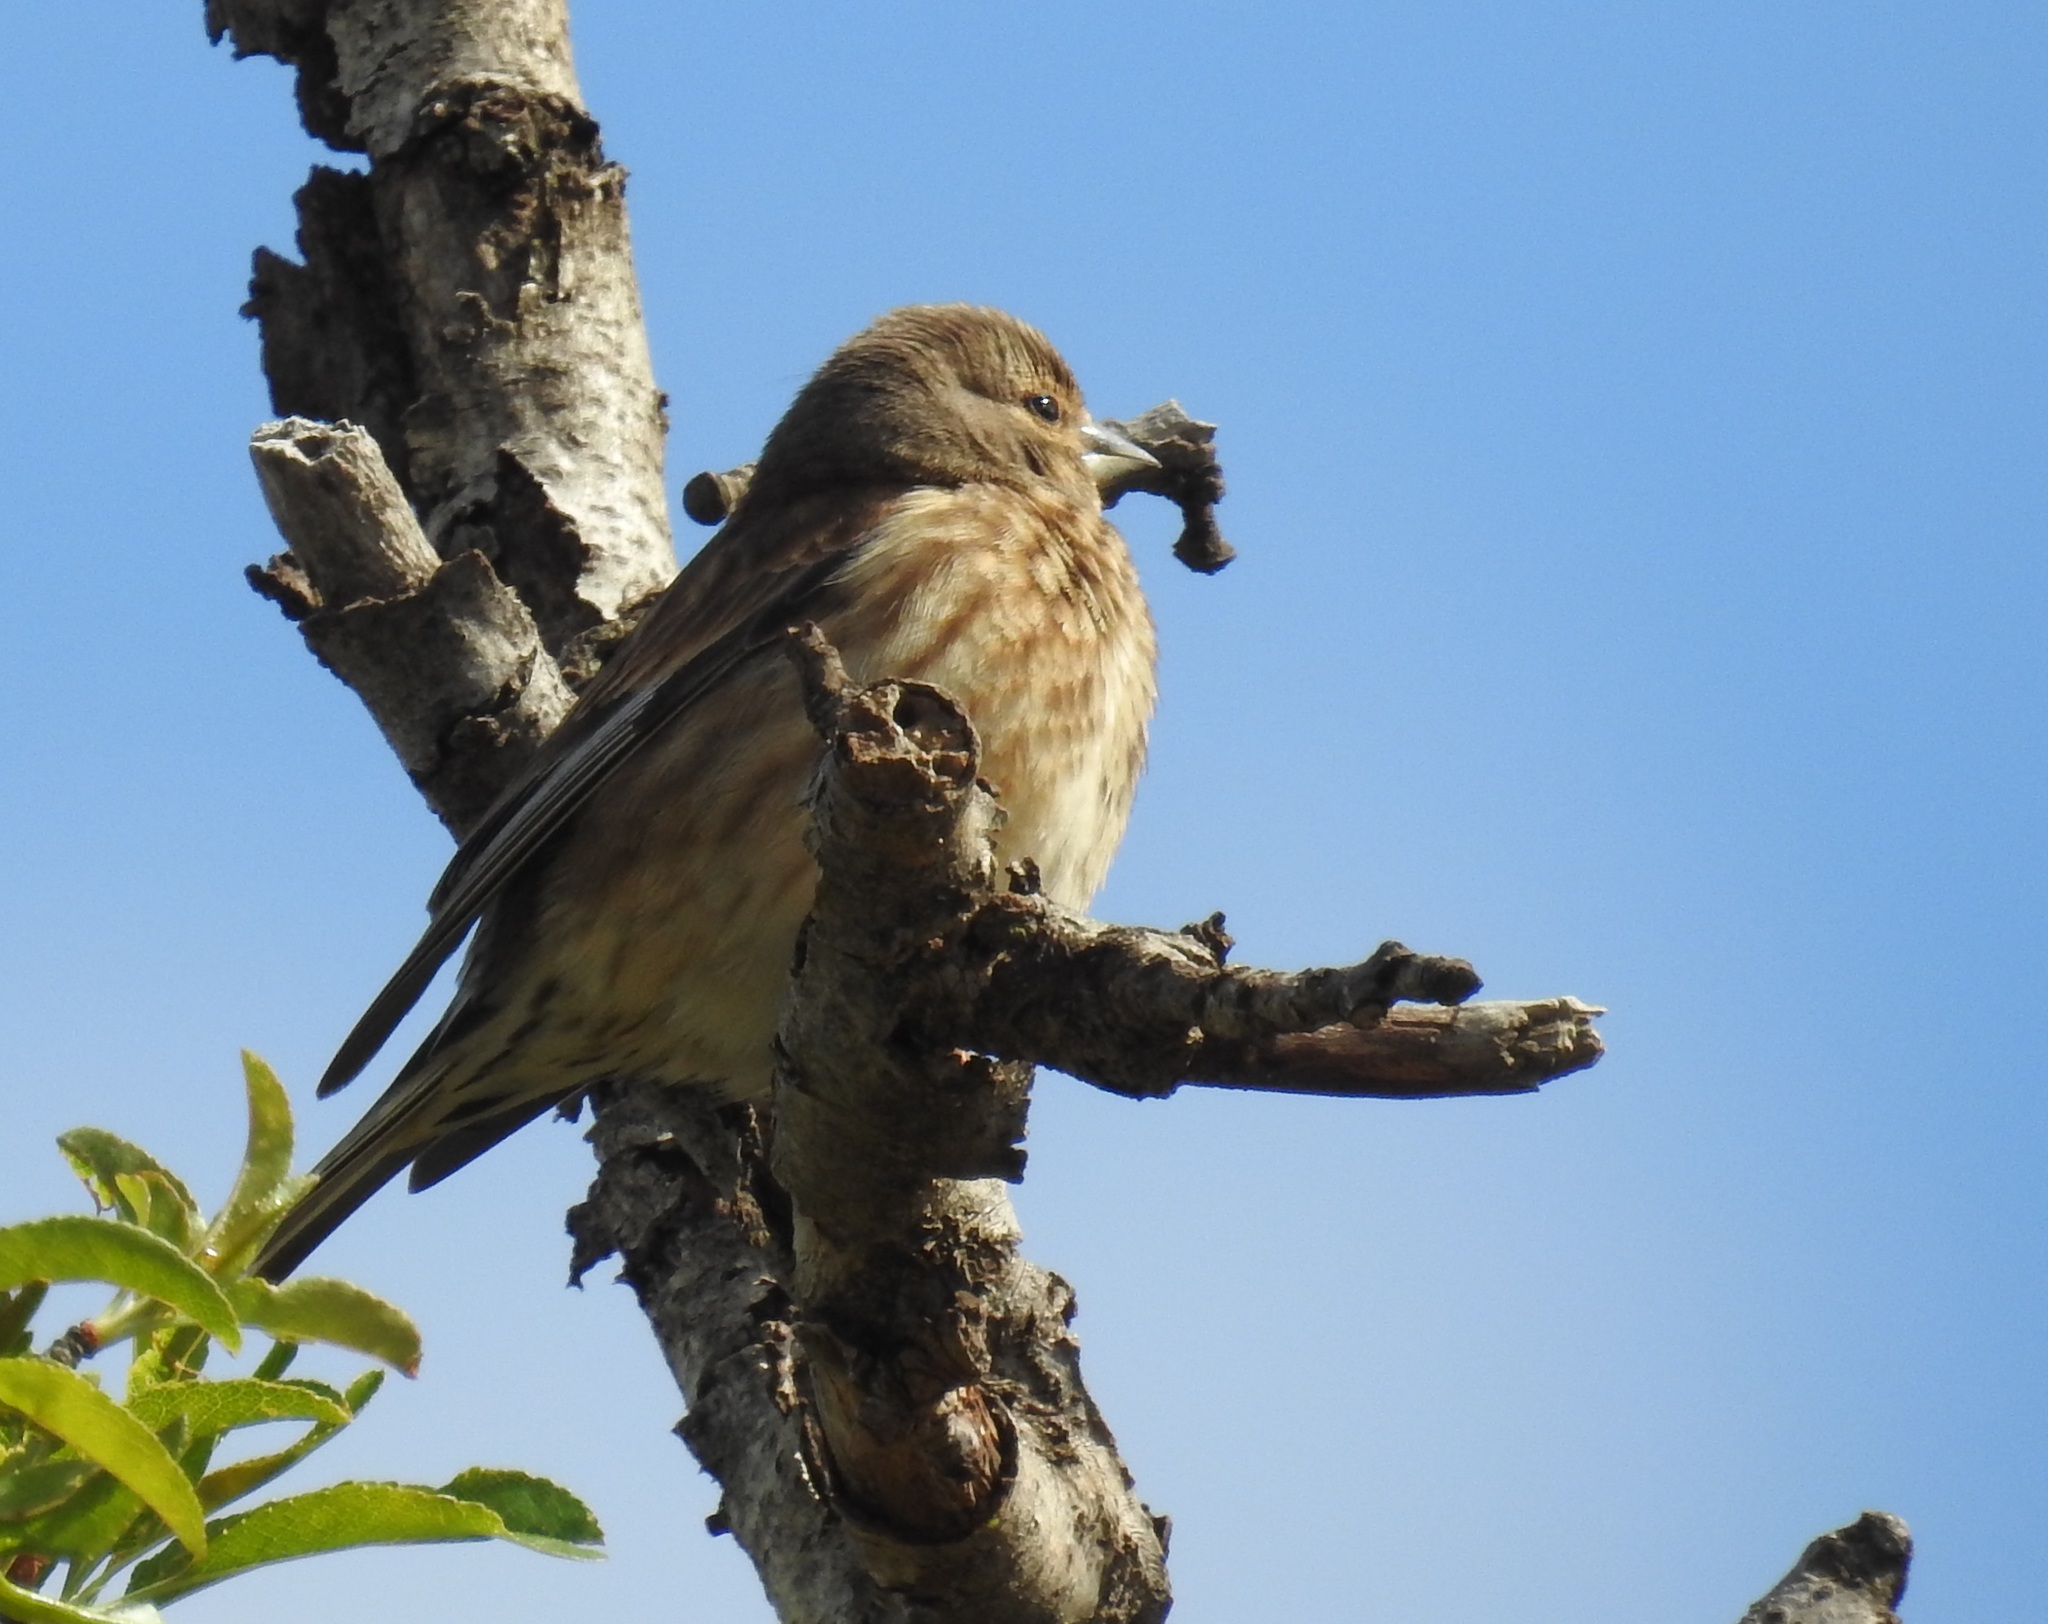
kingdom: Animalia
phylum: Chordata
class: Aves
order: Passeriformes
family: Fringillidae
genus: Linaria
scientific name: Linaria cannabina
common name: Common linnet
